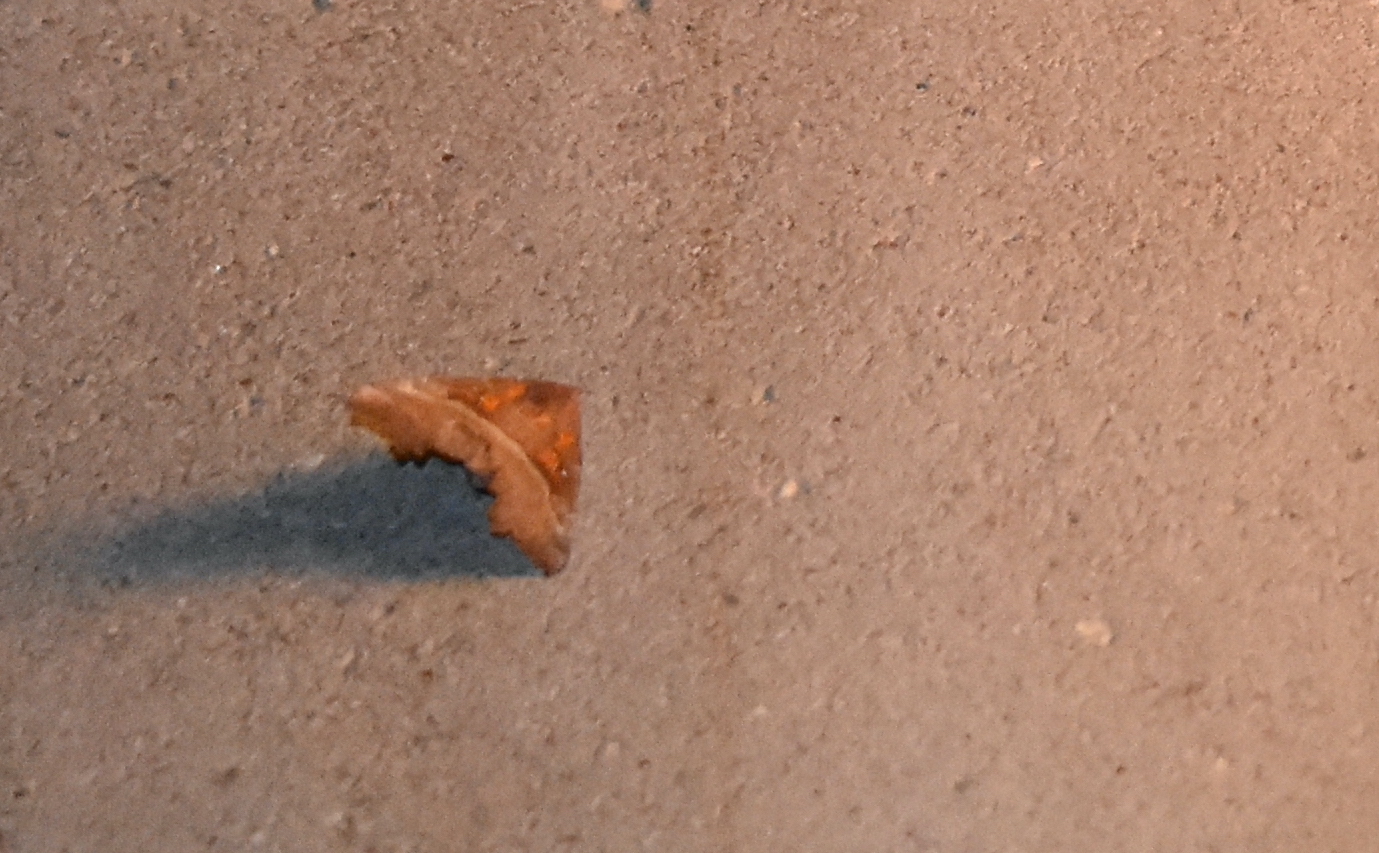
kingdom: Animalia
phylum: Arthropoda
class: Insecta
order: Lepidoptera
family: Erebidae
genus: Scoliopteryx
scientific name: Scoliopteryx libatrix
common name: Herald
